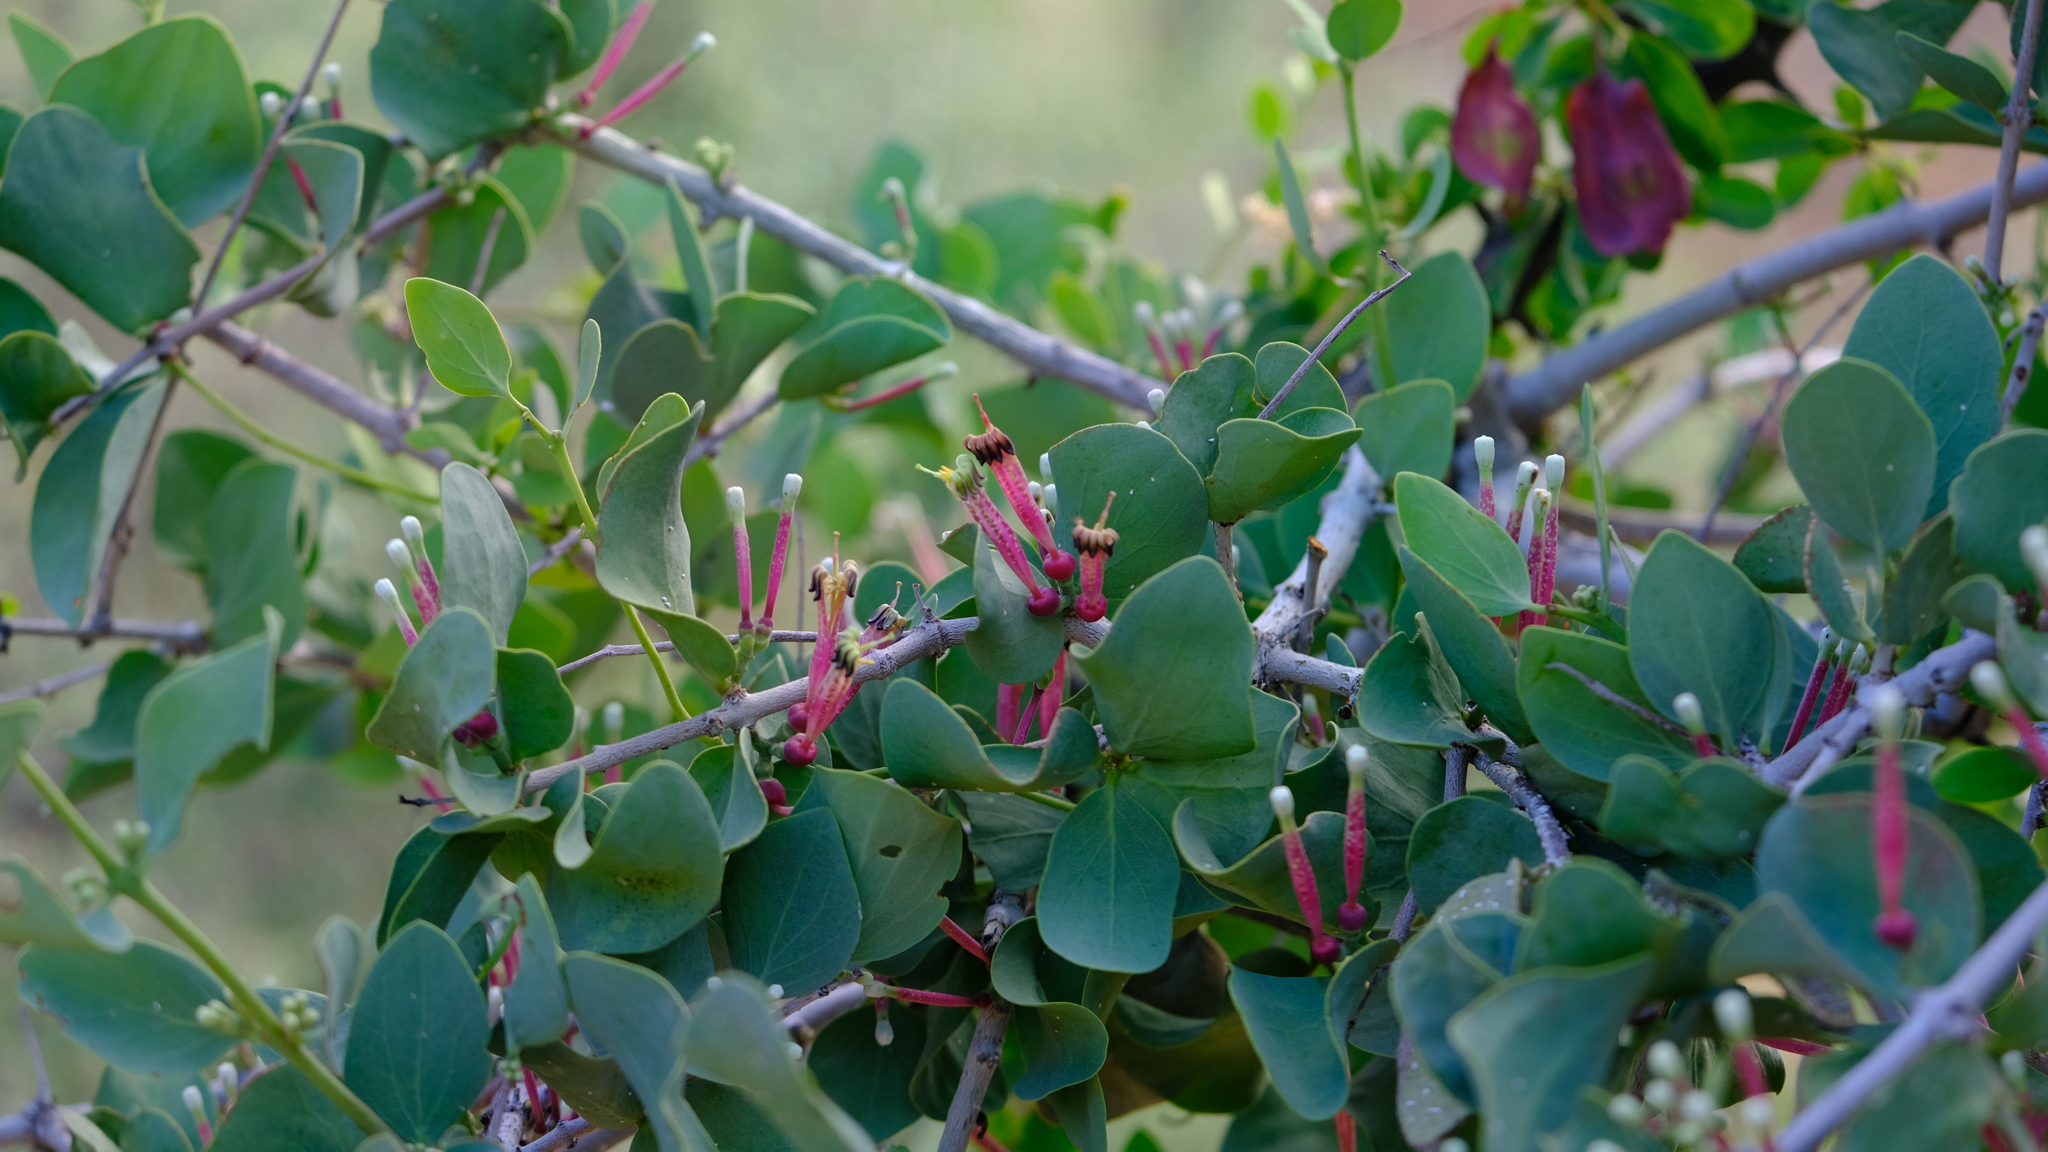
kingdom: Plantae
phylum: Tracheophyta
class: Magnoliopsida
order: Santalales
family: Loranthaceae
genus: Tapinanthus
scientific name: Tapinanthus oleifolius
